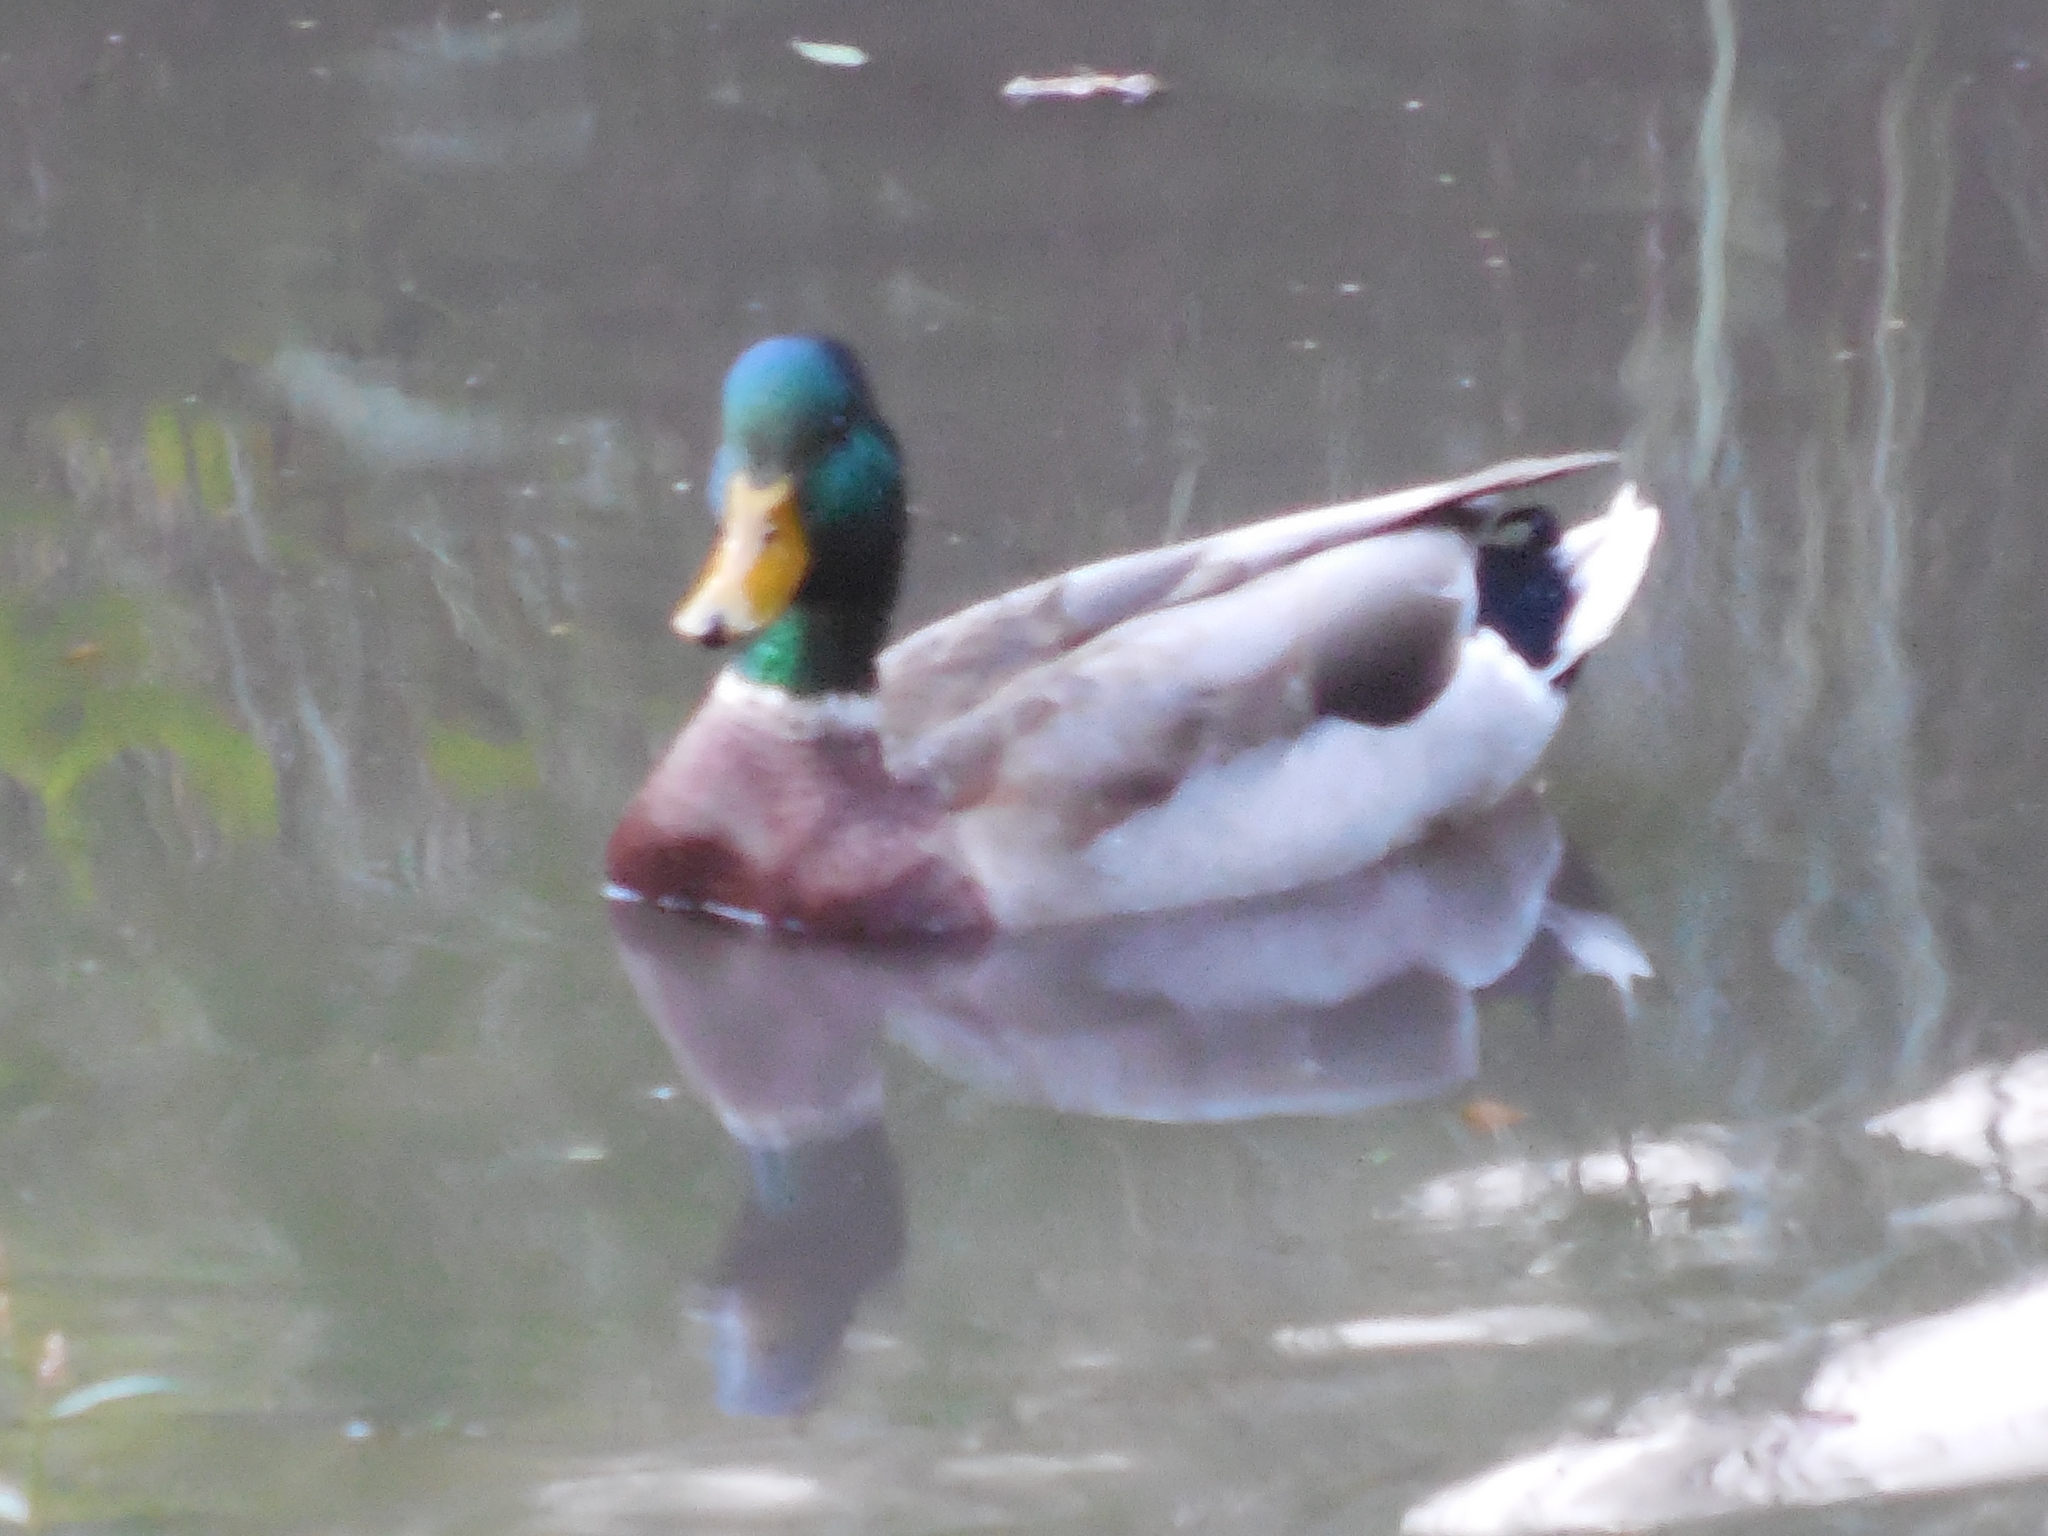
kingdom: Animalia
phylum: Chordata
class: Aves
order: Anseriformes
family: Anatidae
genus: Anas
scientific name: Anas platyrhynchos
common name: Mallard
